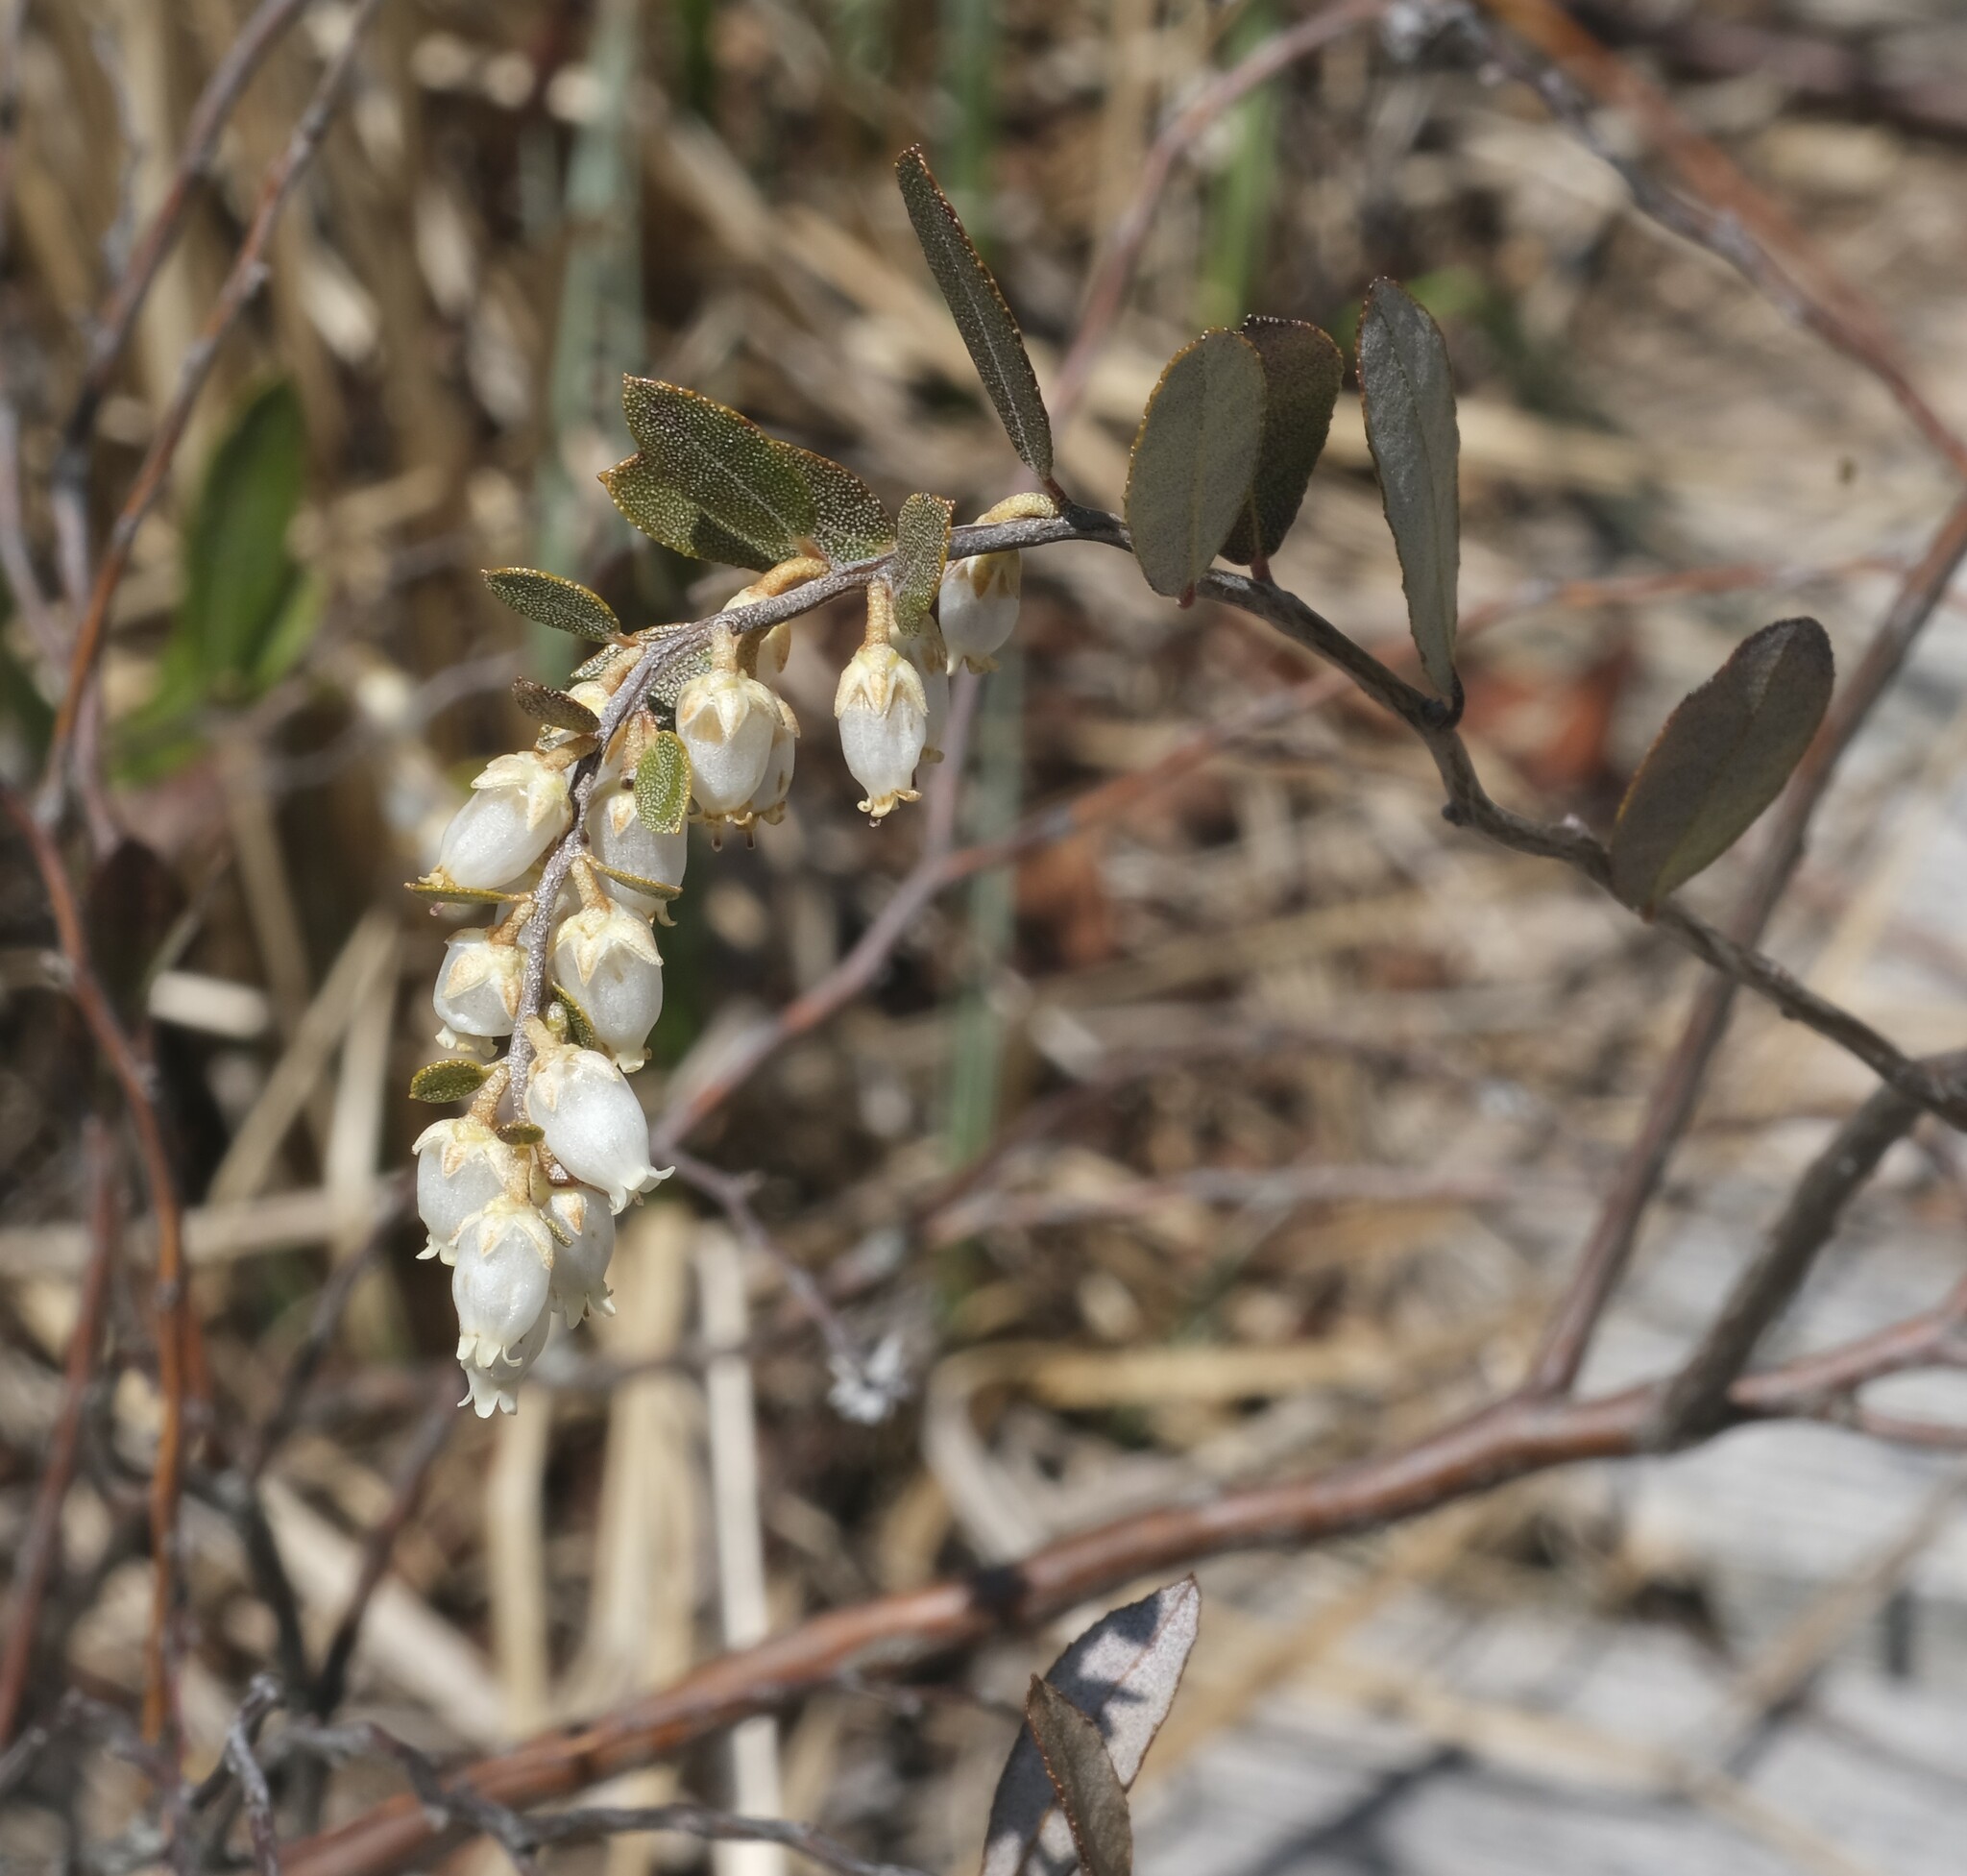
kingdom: Plantae
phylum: Tracheophyta
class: Magnoliopsida
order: Ericales
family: Ericaceae
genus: Chamaedaphne
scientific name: Chamaedaphne calyculata
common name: Leatherleaf
